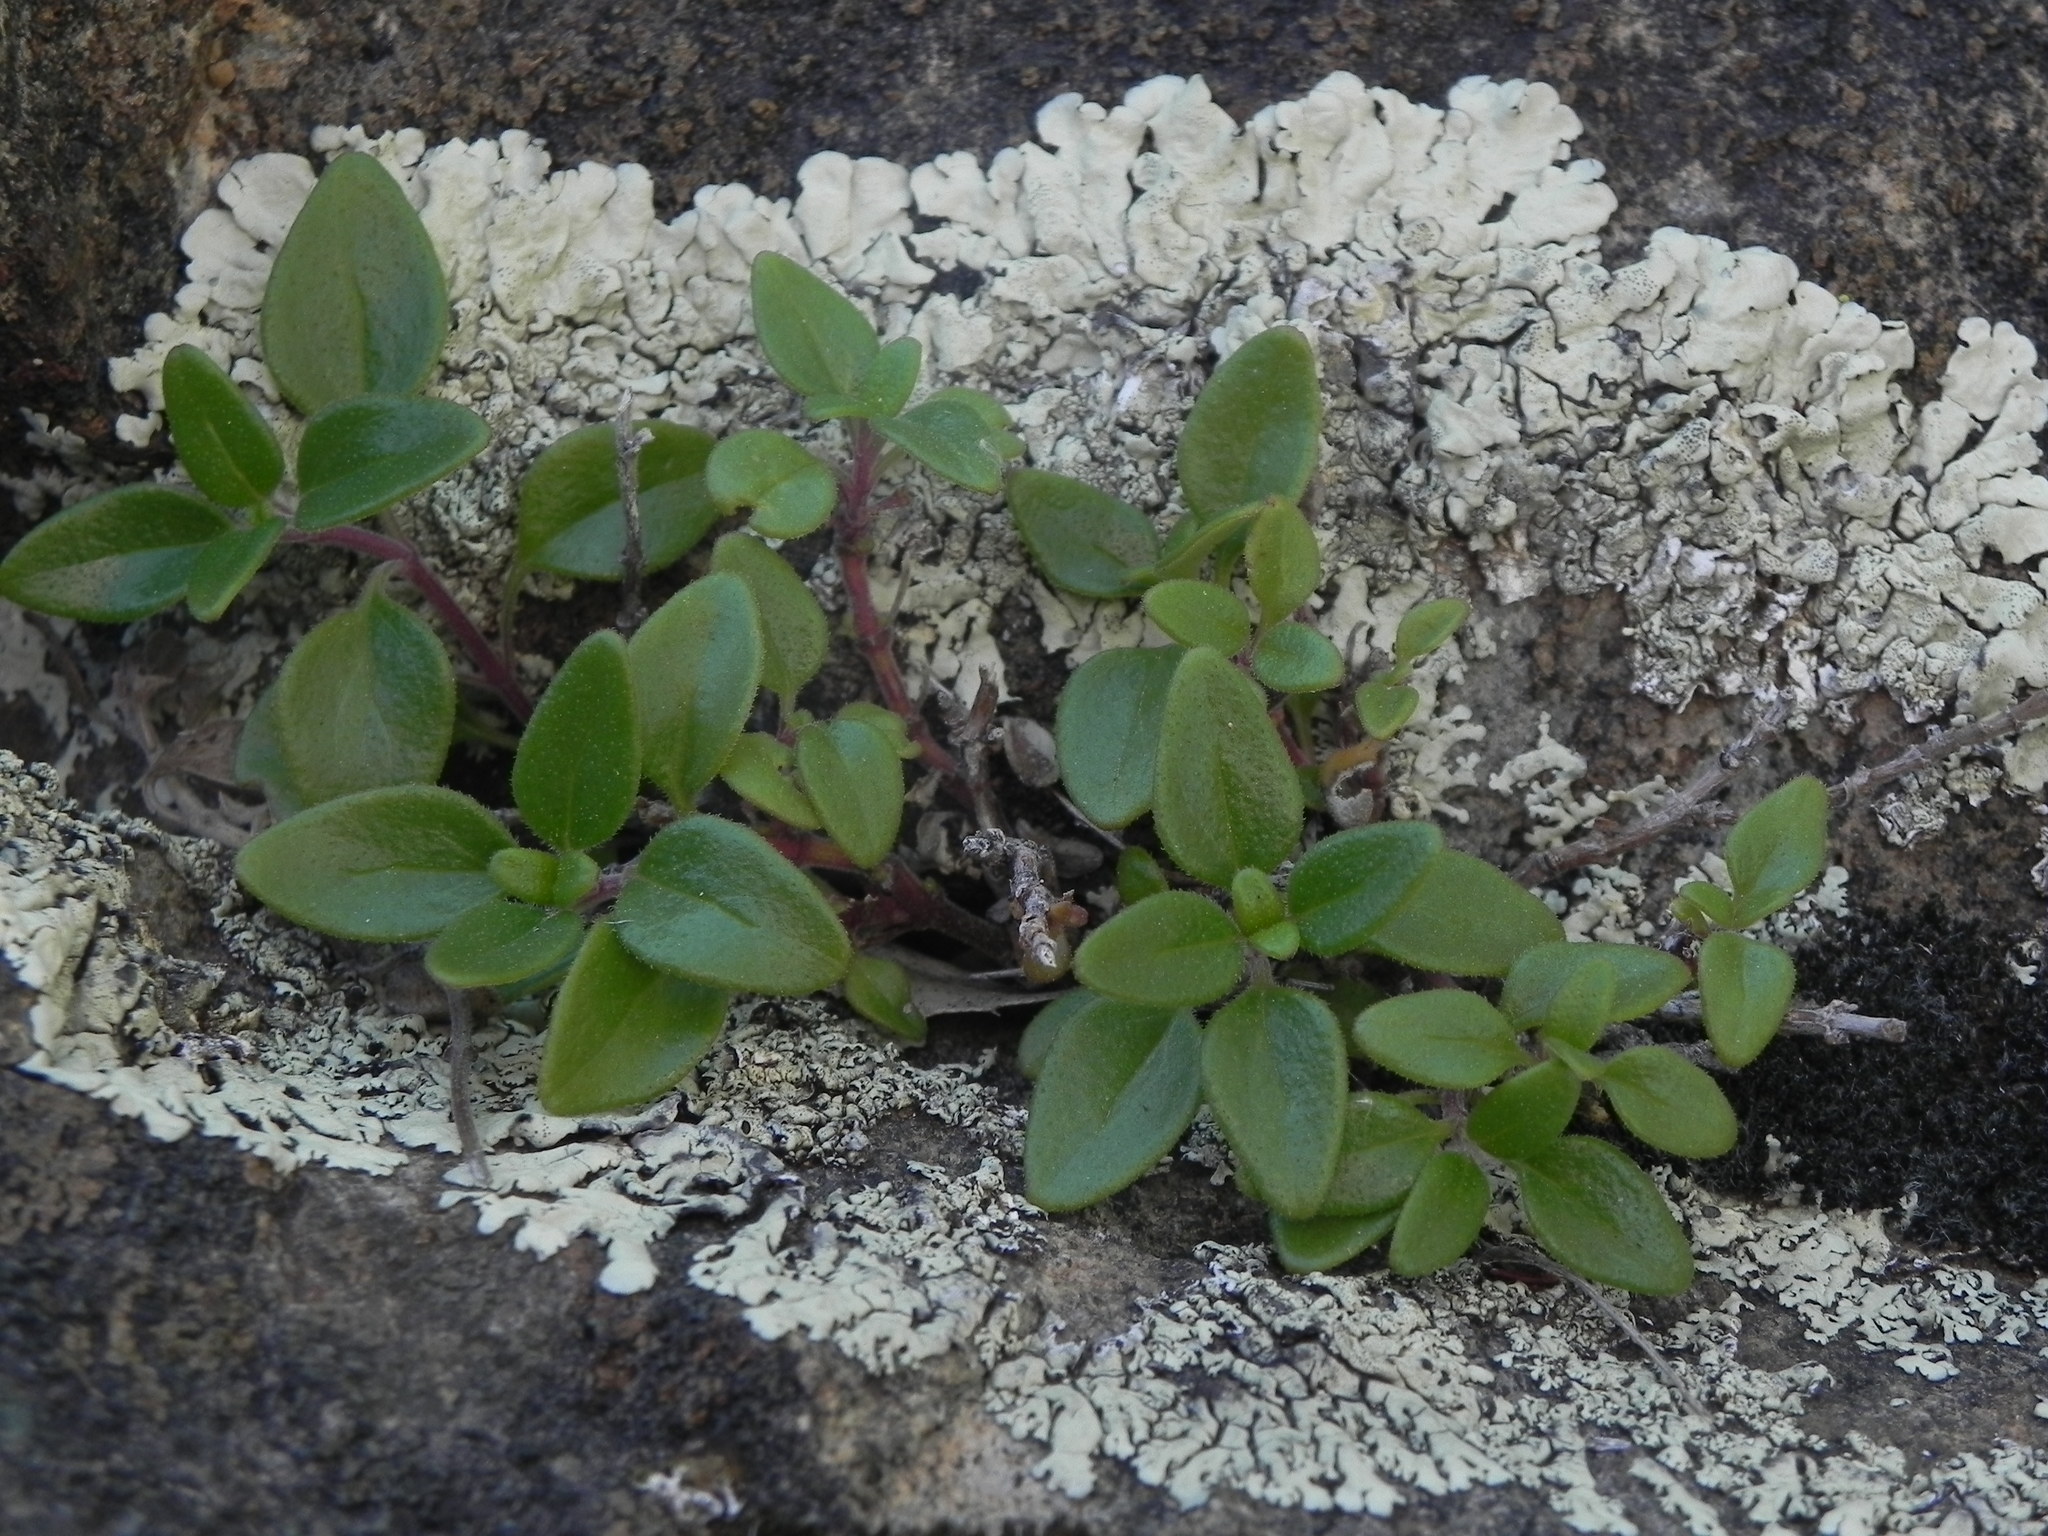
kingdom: Plantae
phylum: Tracheophyta
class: Magnoliopsida
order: Lamiales
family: Lamiaceae
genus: Monardella
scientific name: Monardella macrantha
